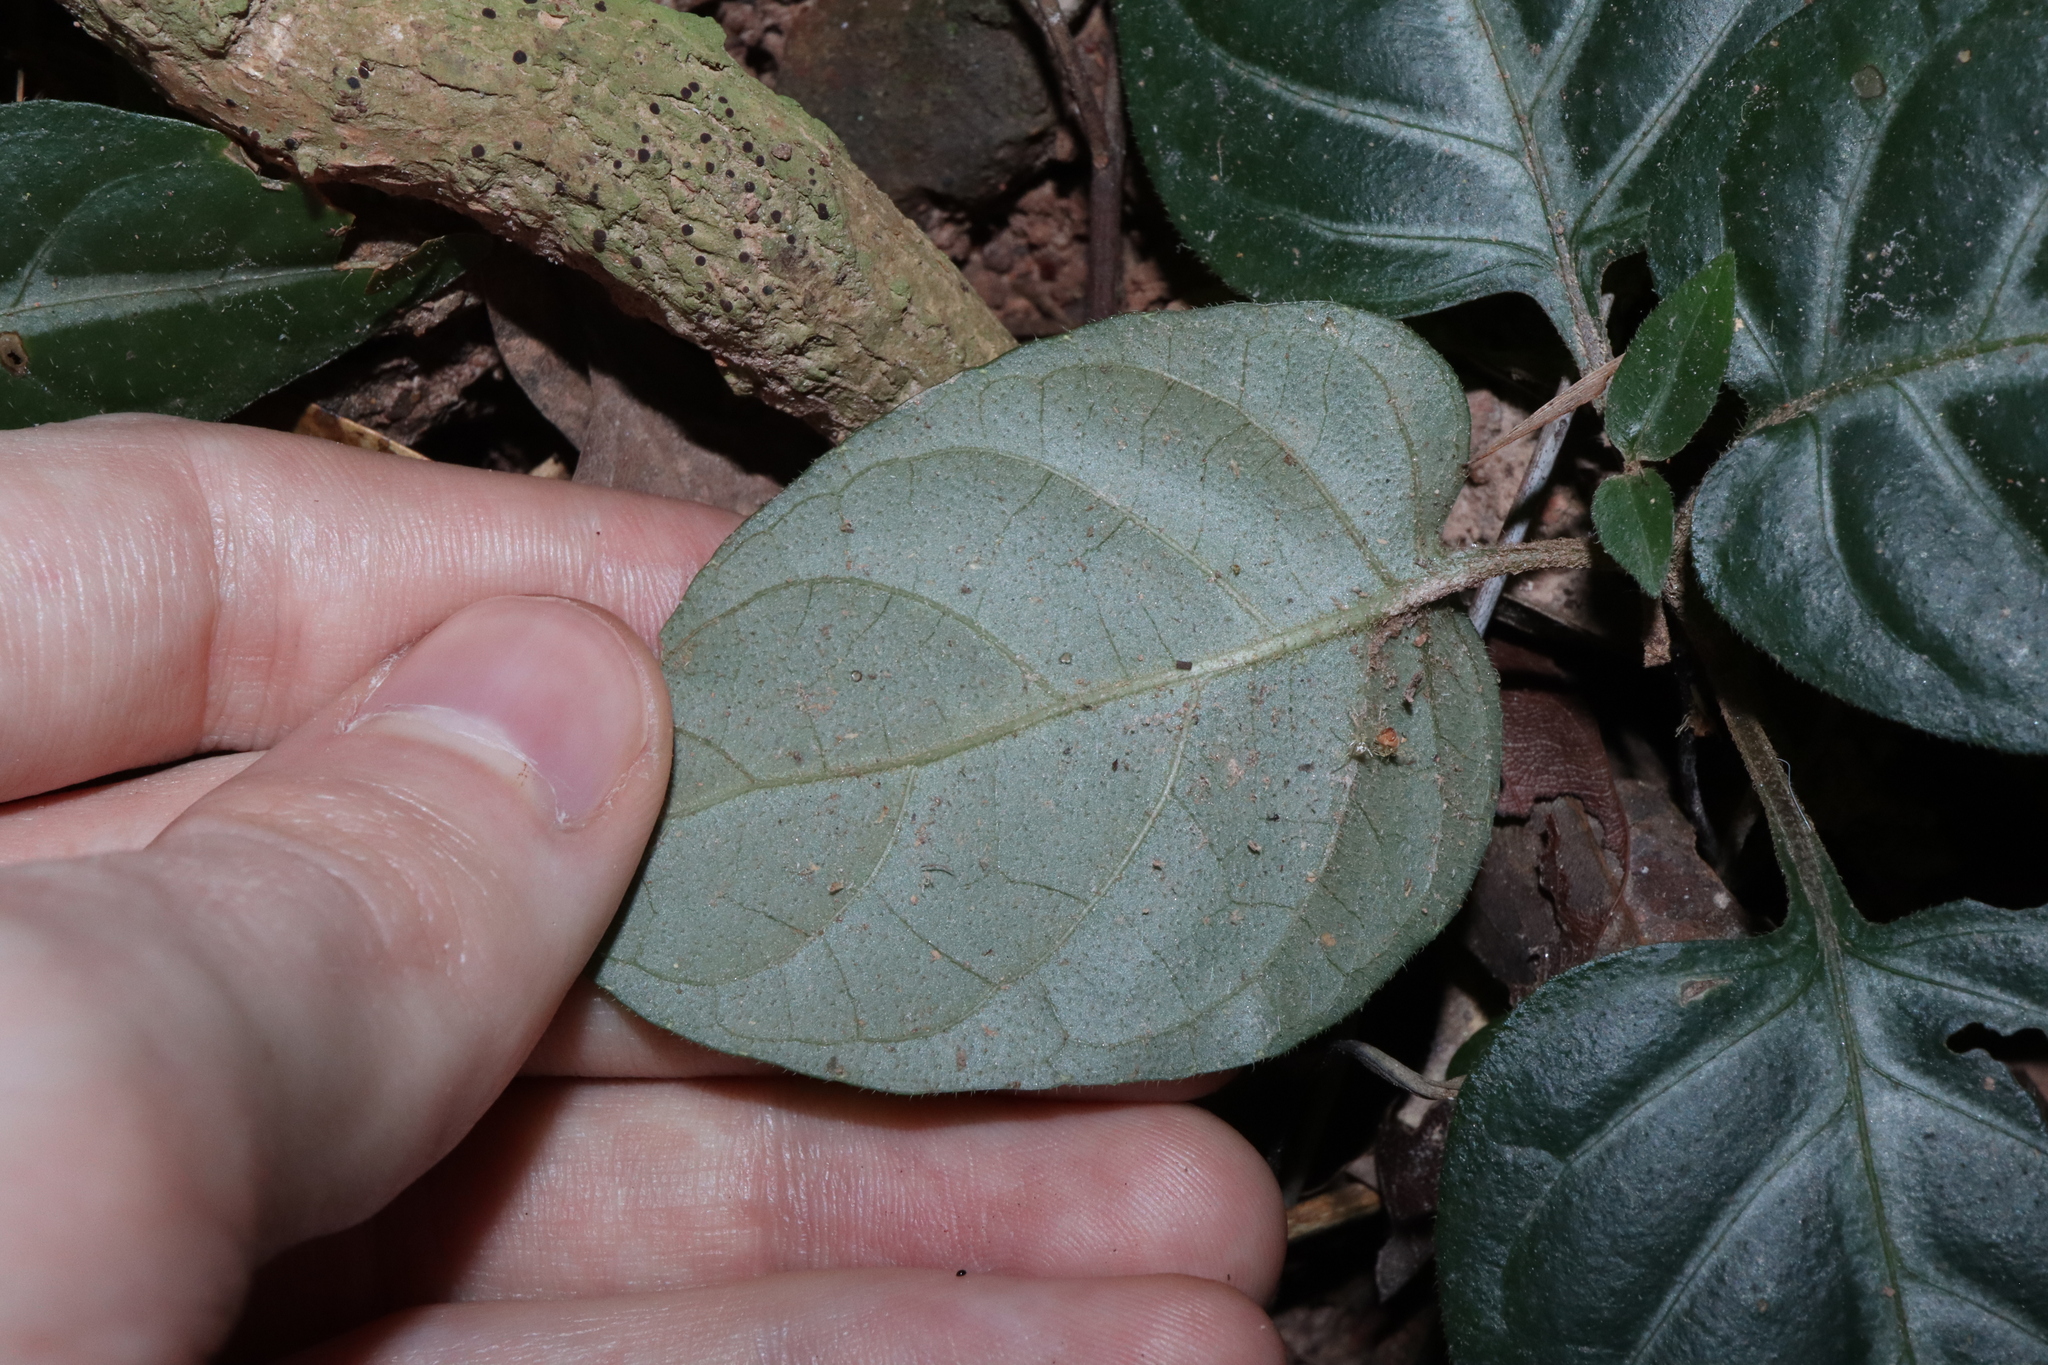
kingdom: Plantae
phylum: Tracheophyta
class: Magnoliopsida
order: Lamiales
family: Acanthaceae
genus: Pseuderanthemum
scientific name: Pseuderanthemum variabile
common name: Night and afternoon
